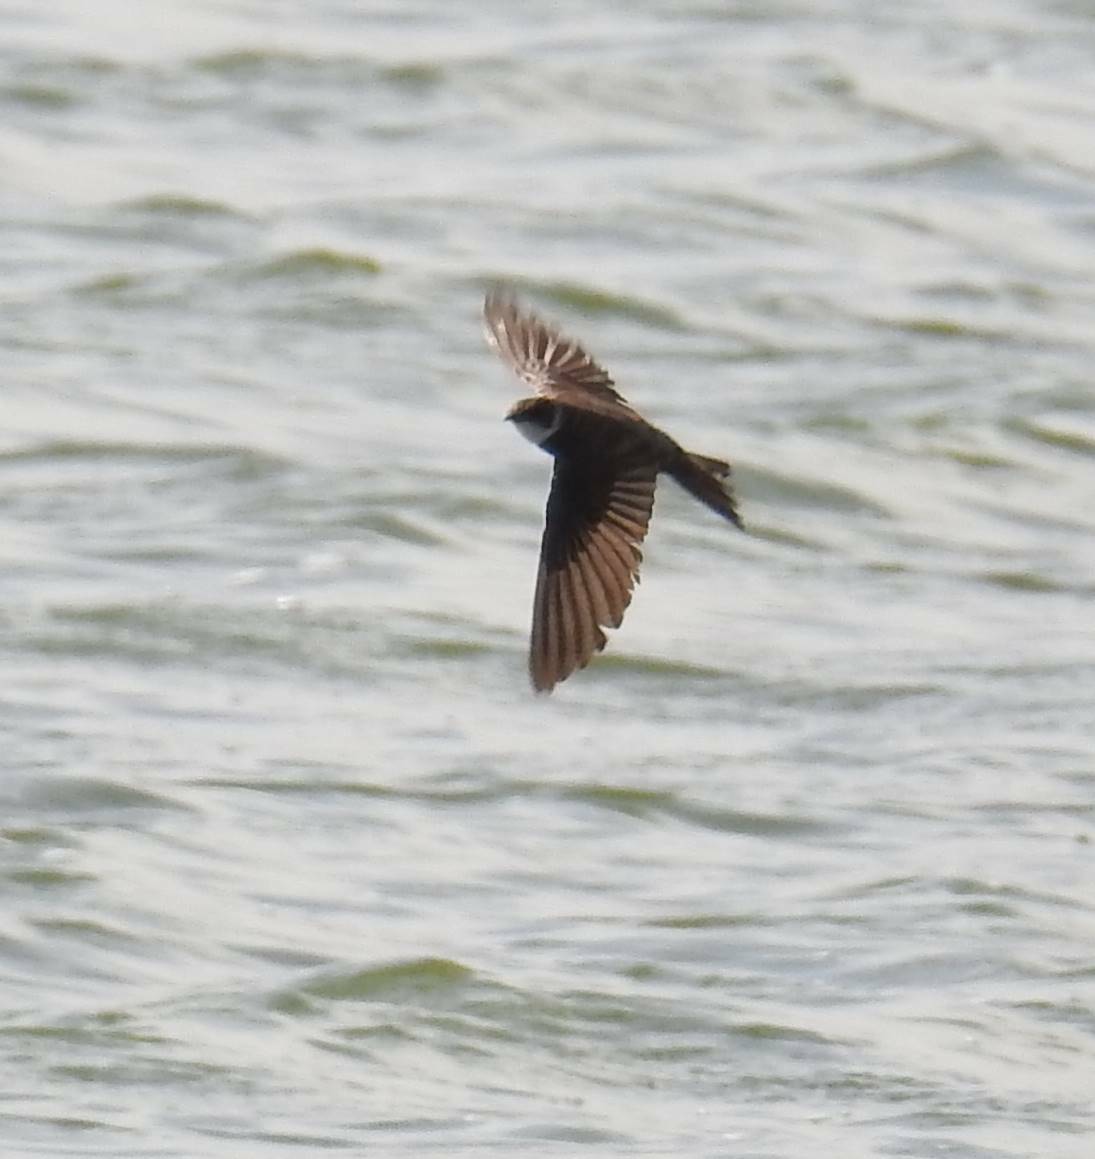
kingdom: Animalia
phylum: Chordata
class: Aves
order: Passeriformes
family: Hirundinidae
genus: Riparia
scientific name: Riparia riparia
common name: Sand martin
